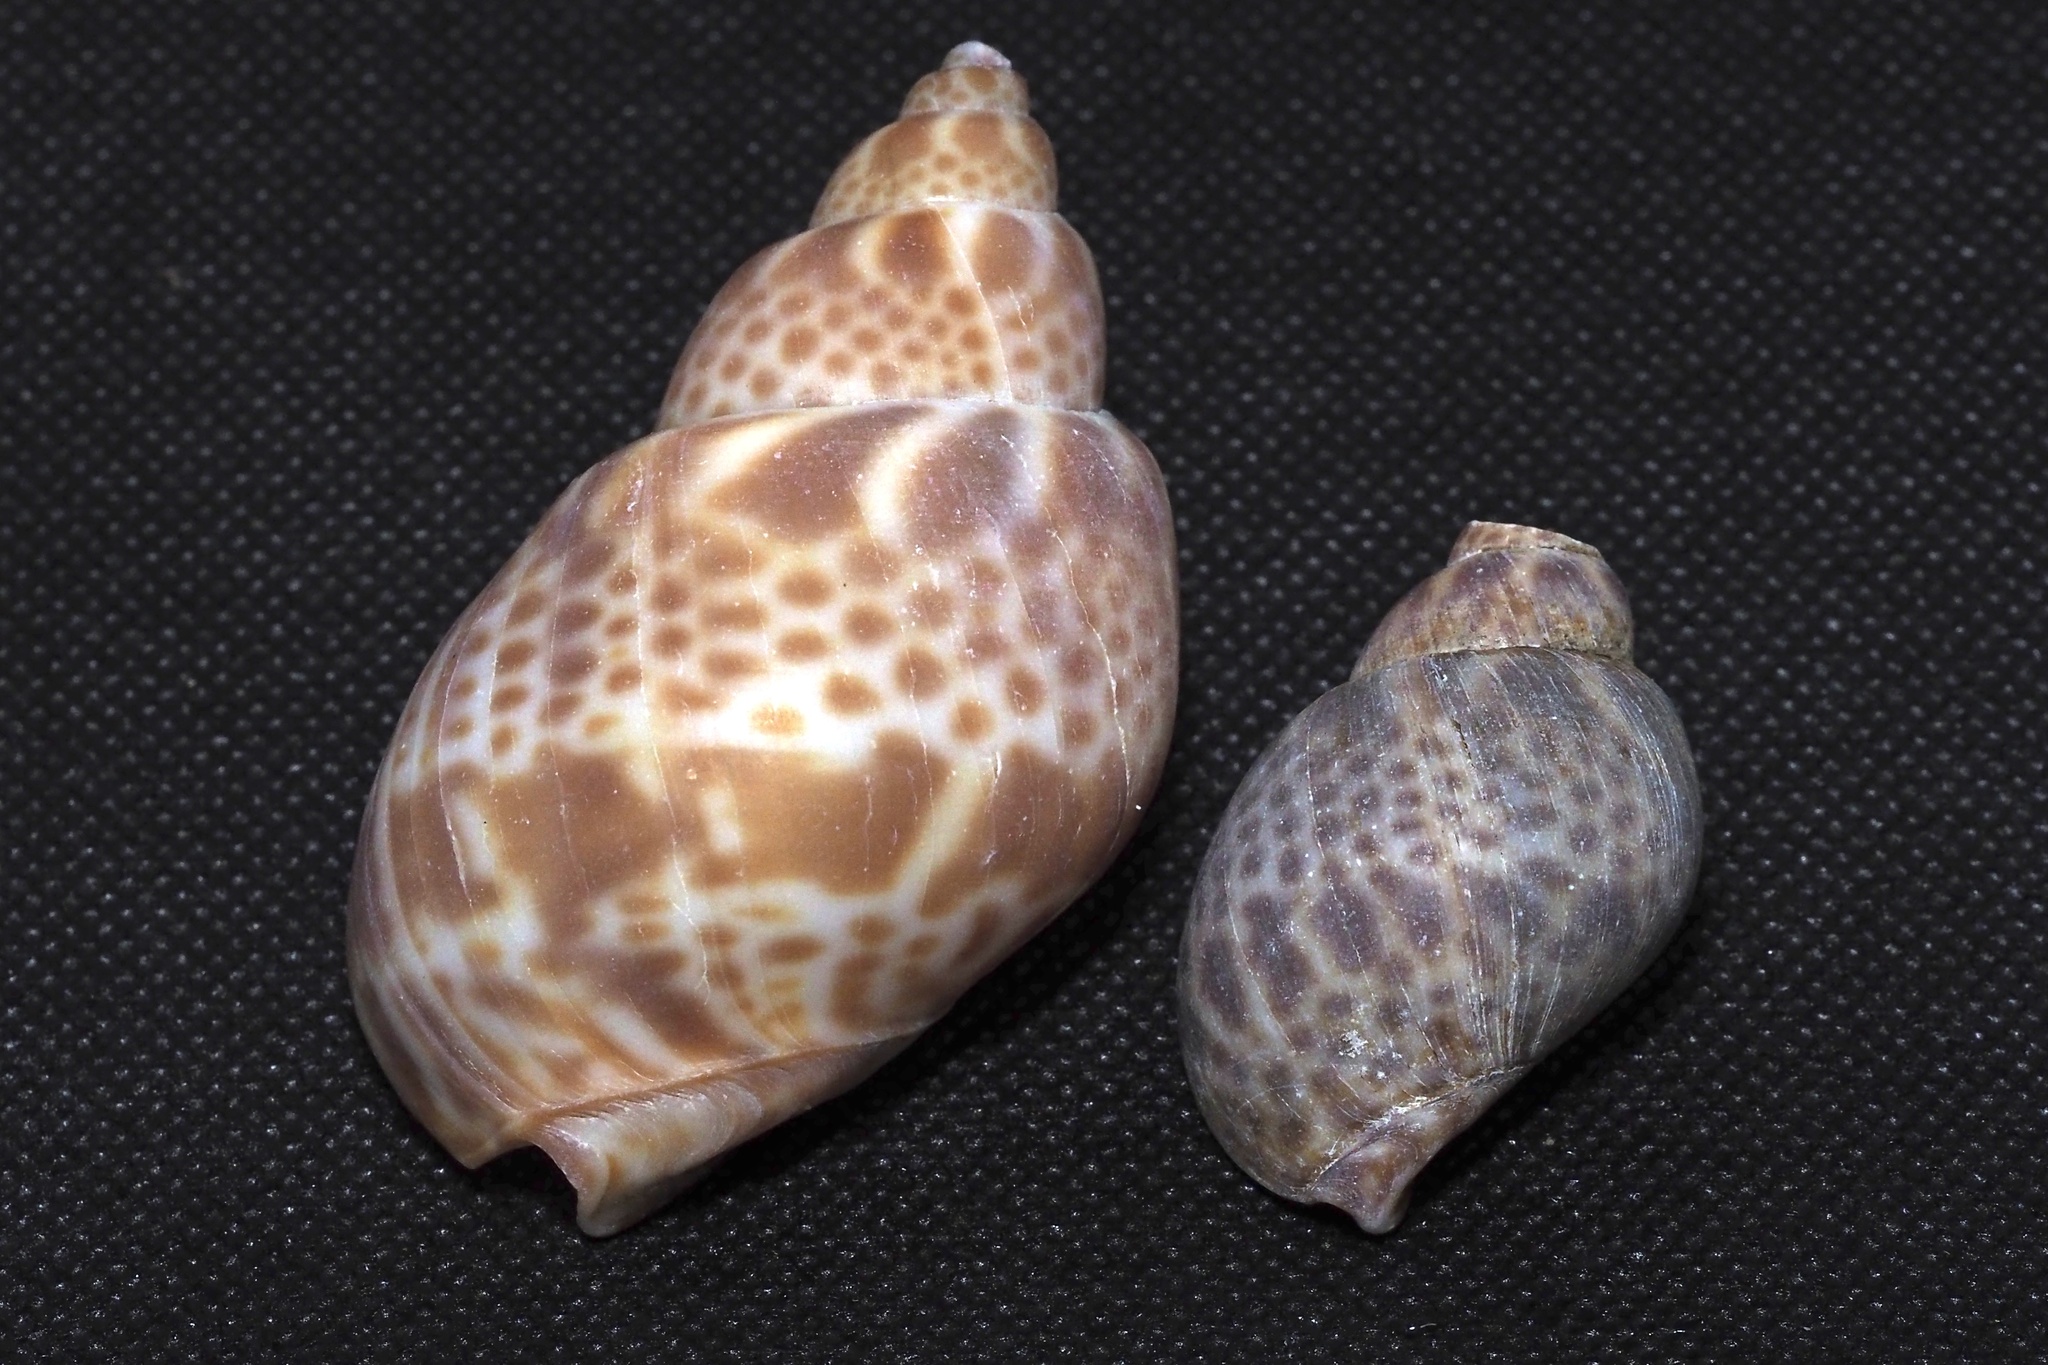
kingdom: Animalia
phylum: Mollusca
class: Gastropoda
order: Neogastropoda
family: Babyloniidae
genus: Babylonia
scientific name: Babylonia japonica
